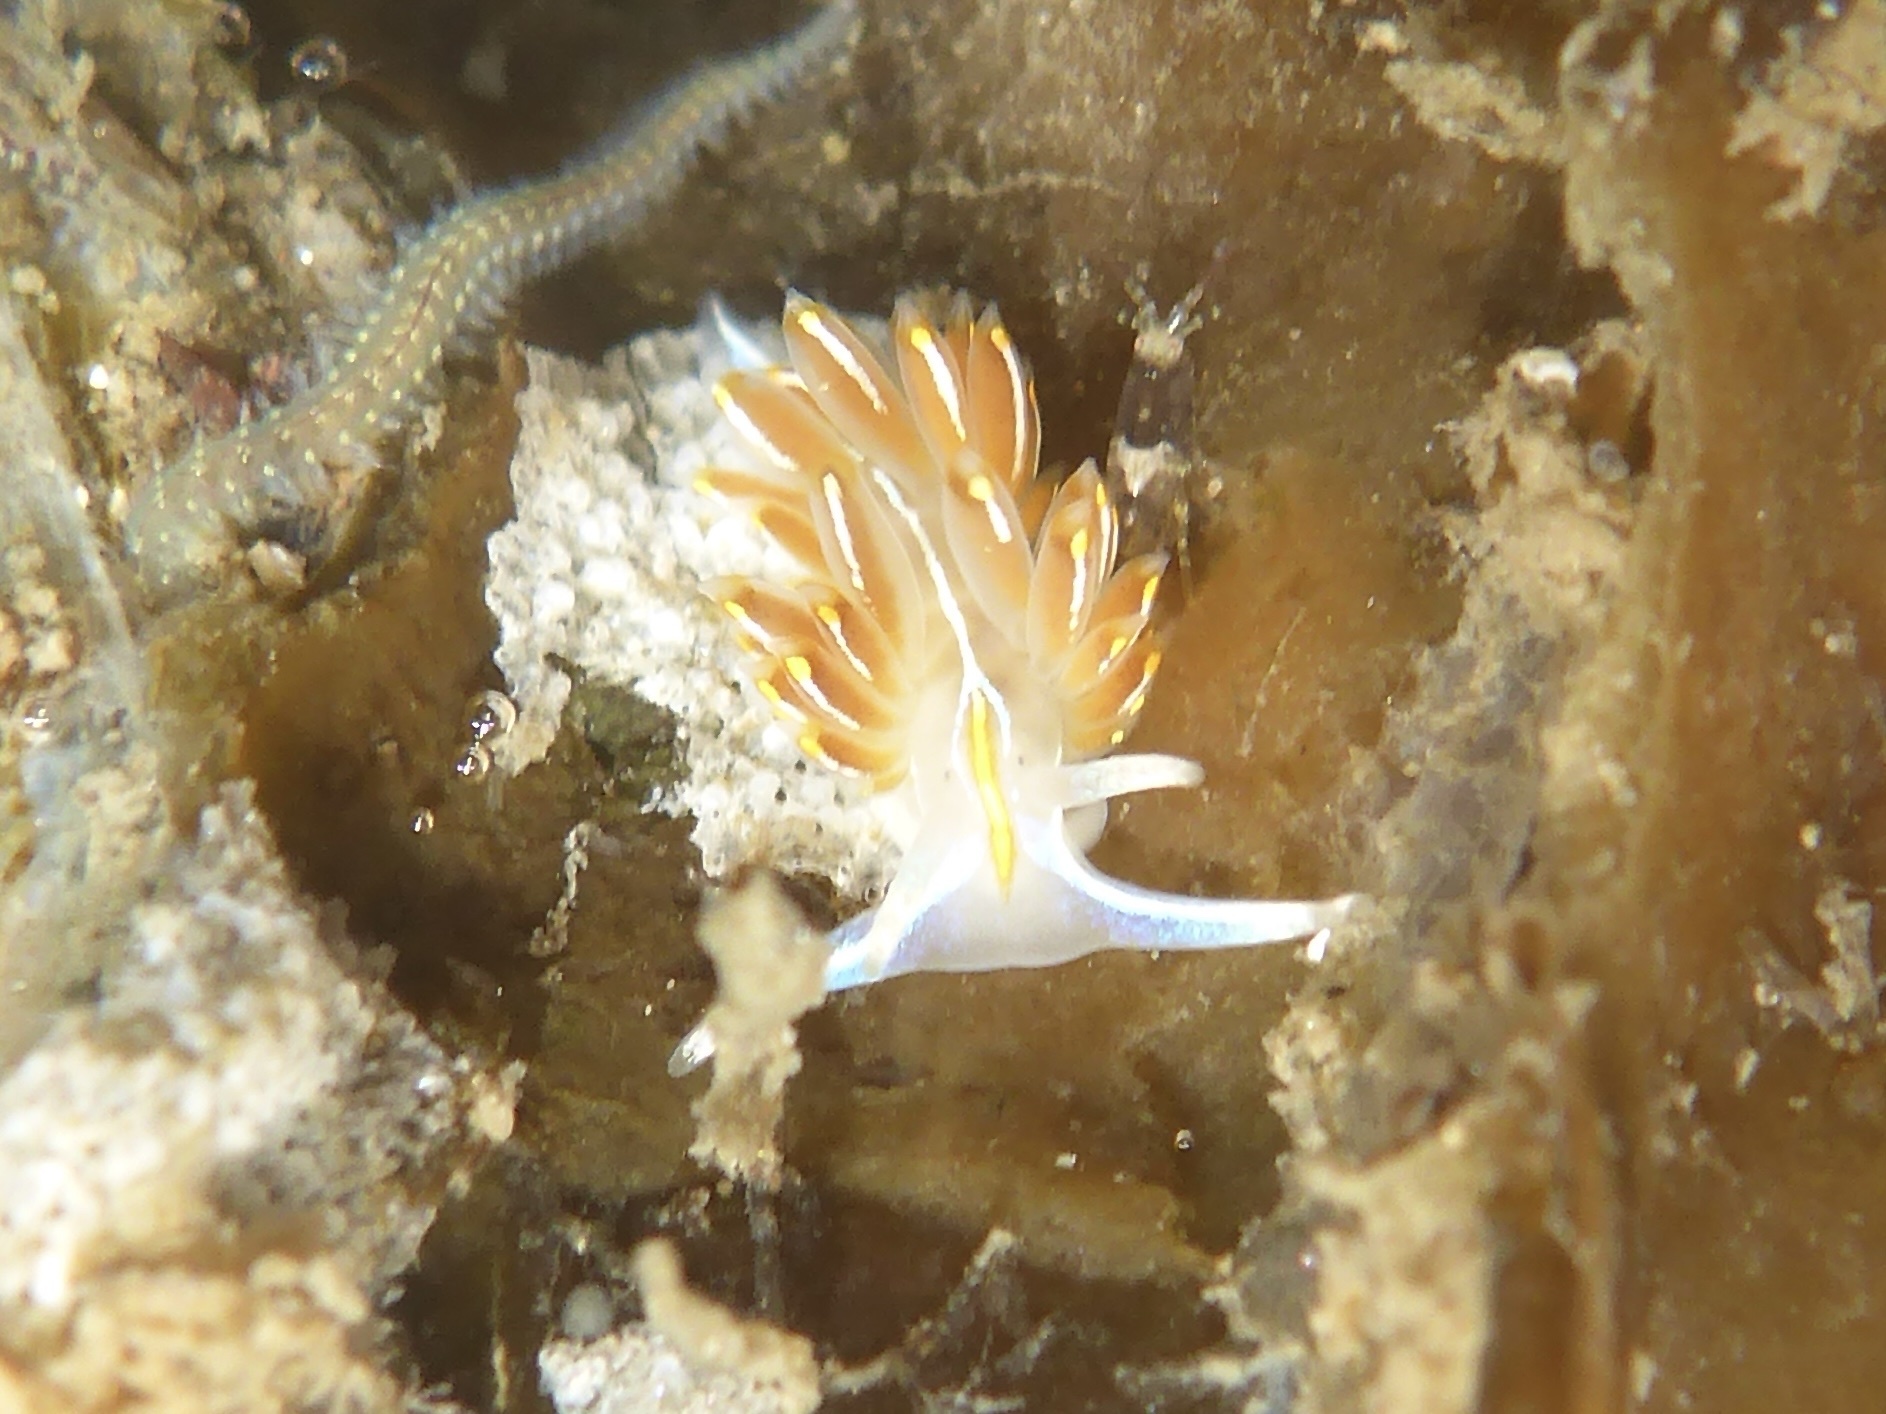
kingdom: Animalia
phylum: Mollusca
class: Gastropoda
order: Nudibranchia
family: Myrrhinidae
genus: Hermissenda
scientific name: Hermissenda crassicornis
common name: Hermissenda
